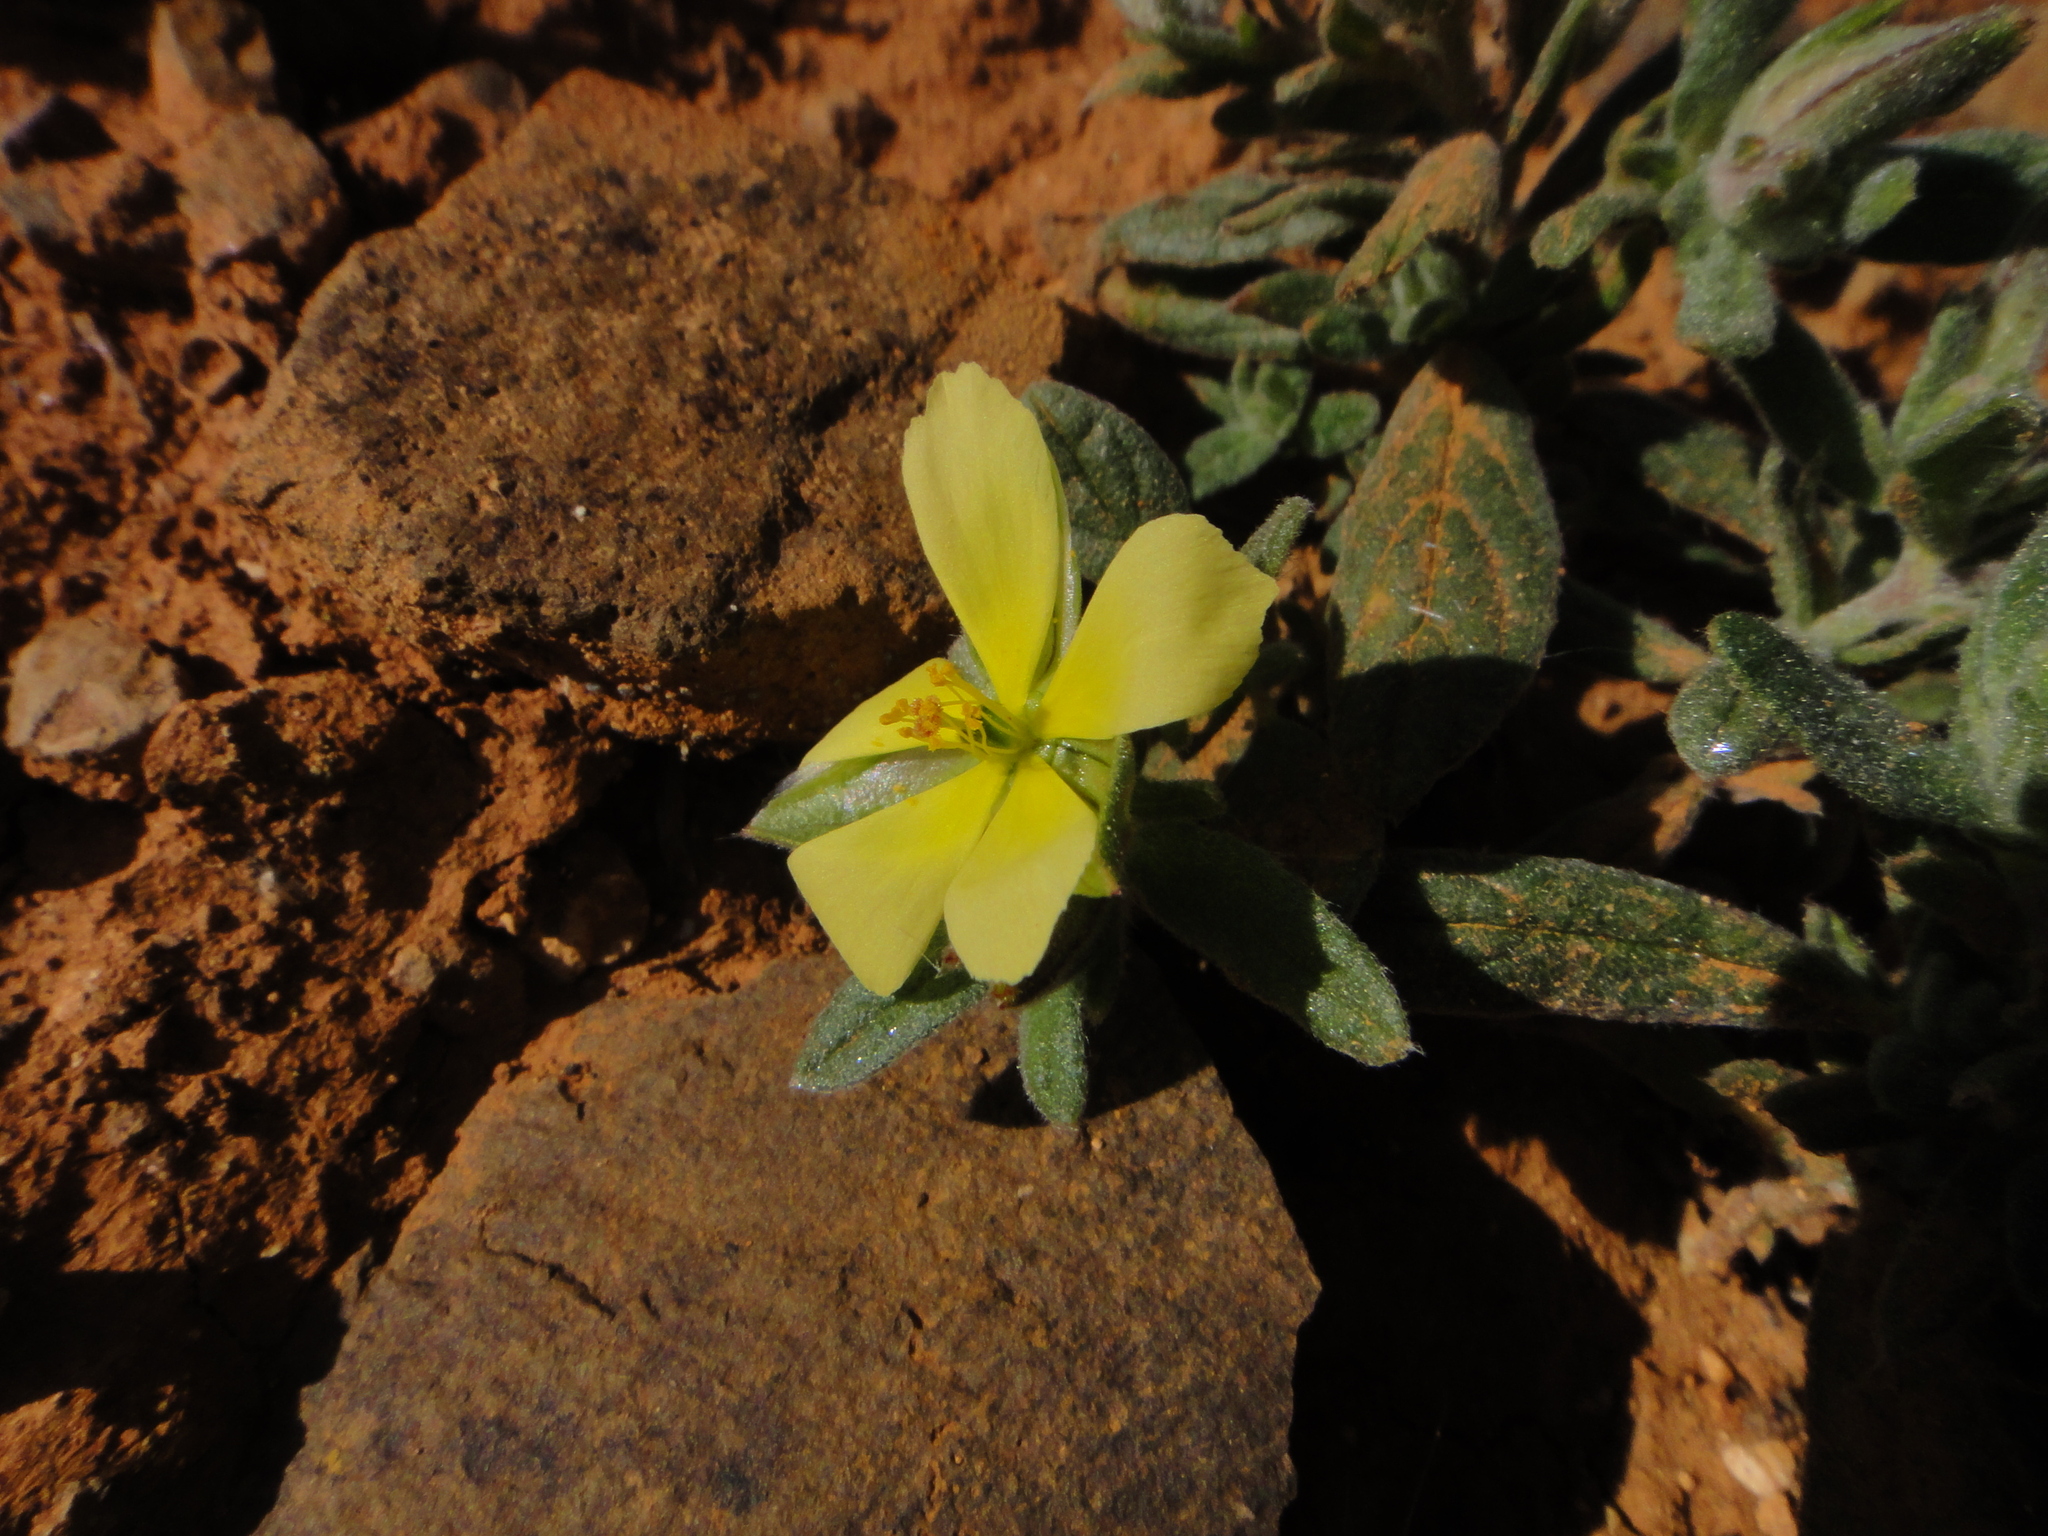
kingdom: Plantae
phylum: Tracheophyta
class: Magnoliopsida
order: Malvales
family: Cistaceae
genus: Helianthemum
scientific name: Helianthemum ledifolium
